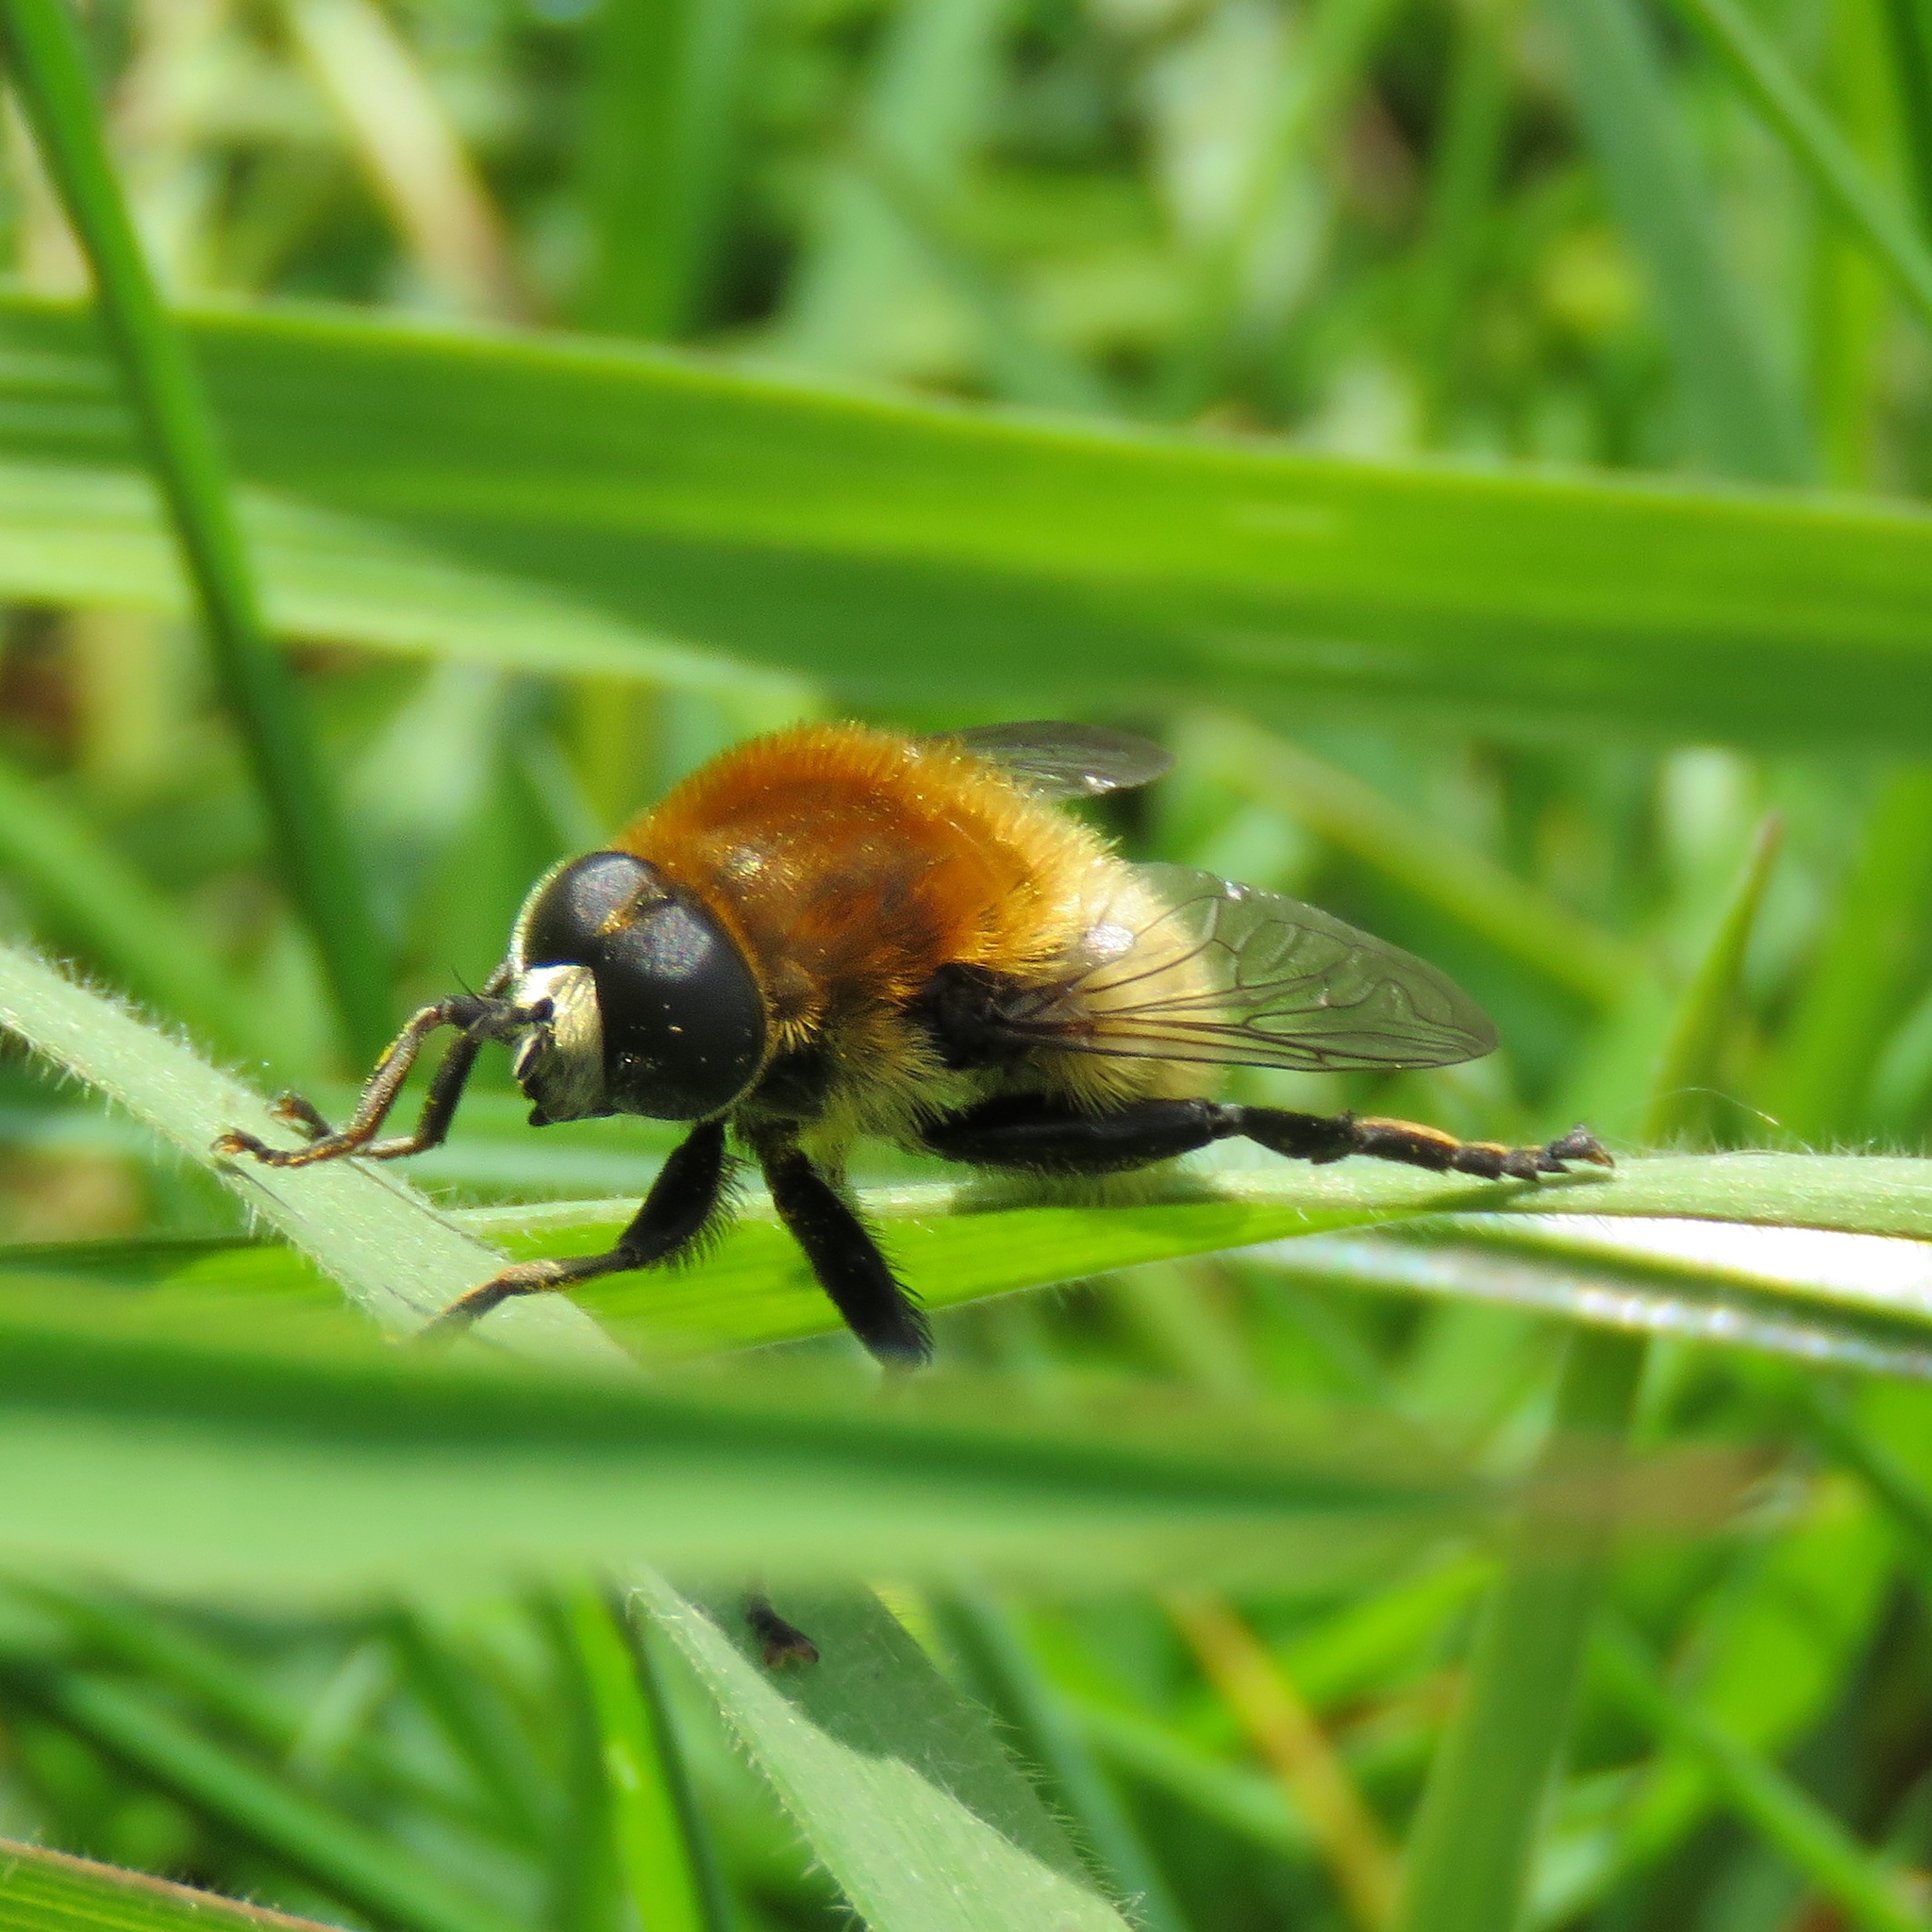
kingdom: Animalia
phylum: Arthropoda
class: Insecta
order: Diptera
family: Syrphidae
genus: Merodon
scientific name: Merodon equestris
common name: Greater bulb-fly
